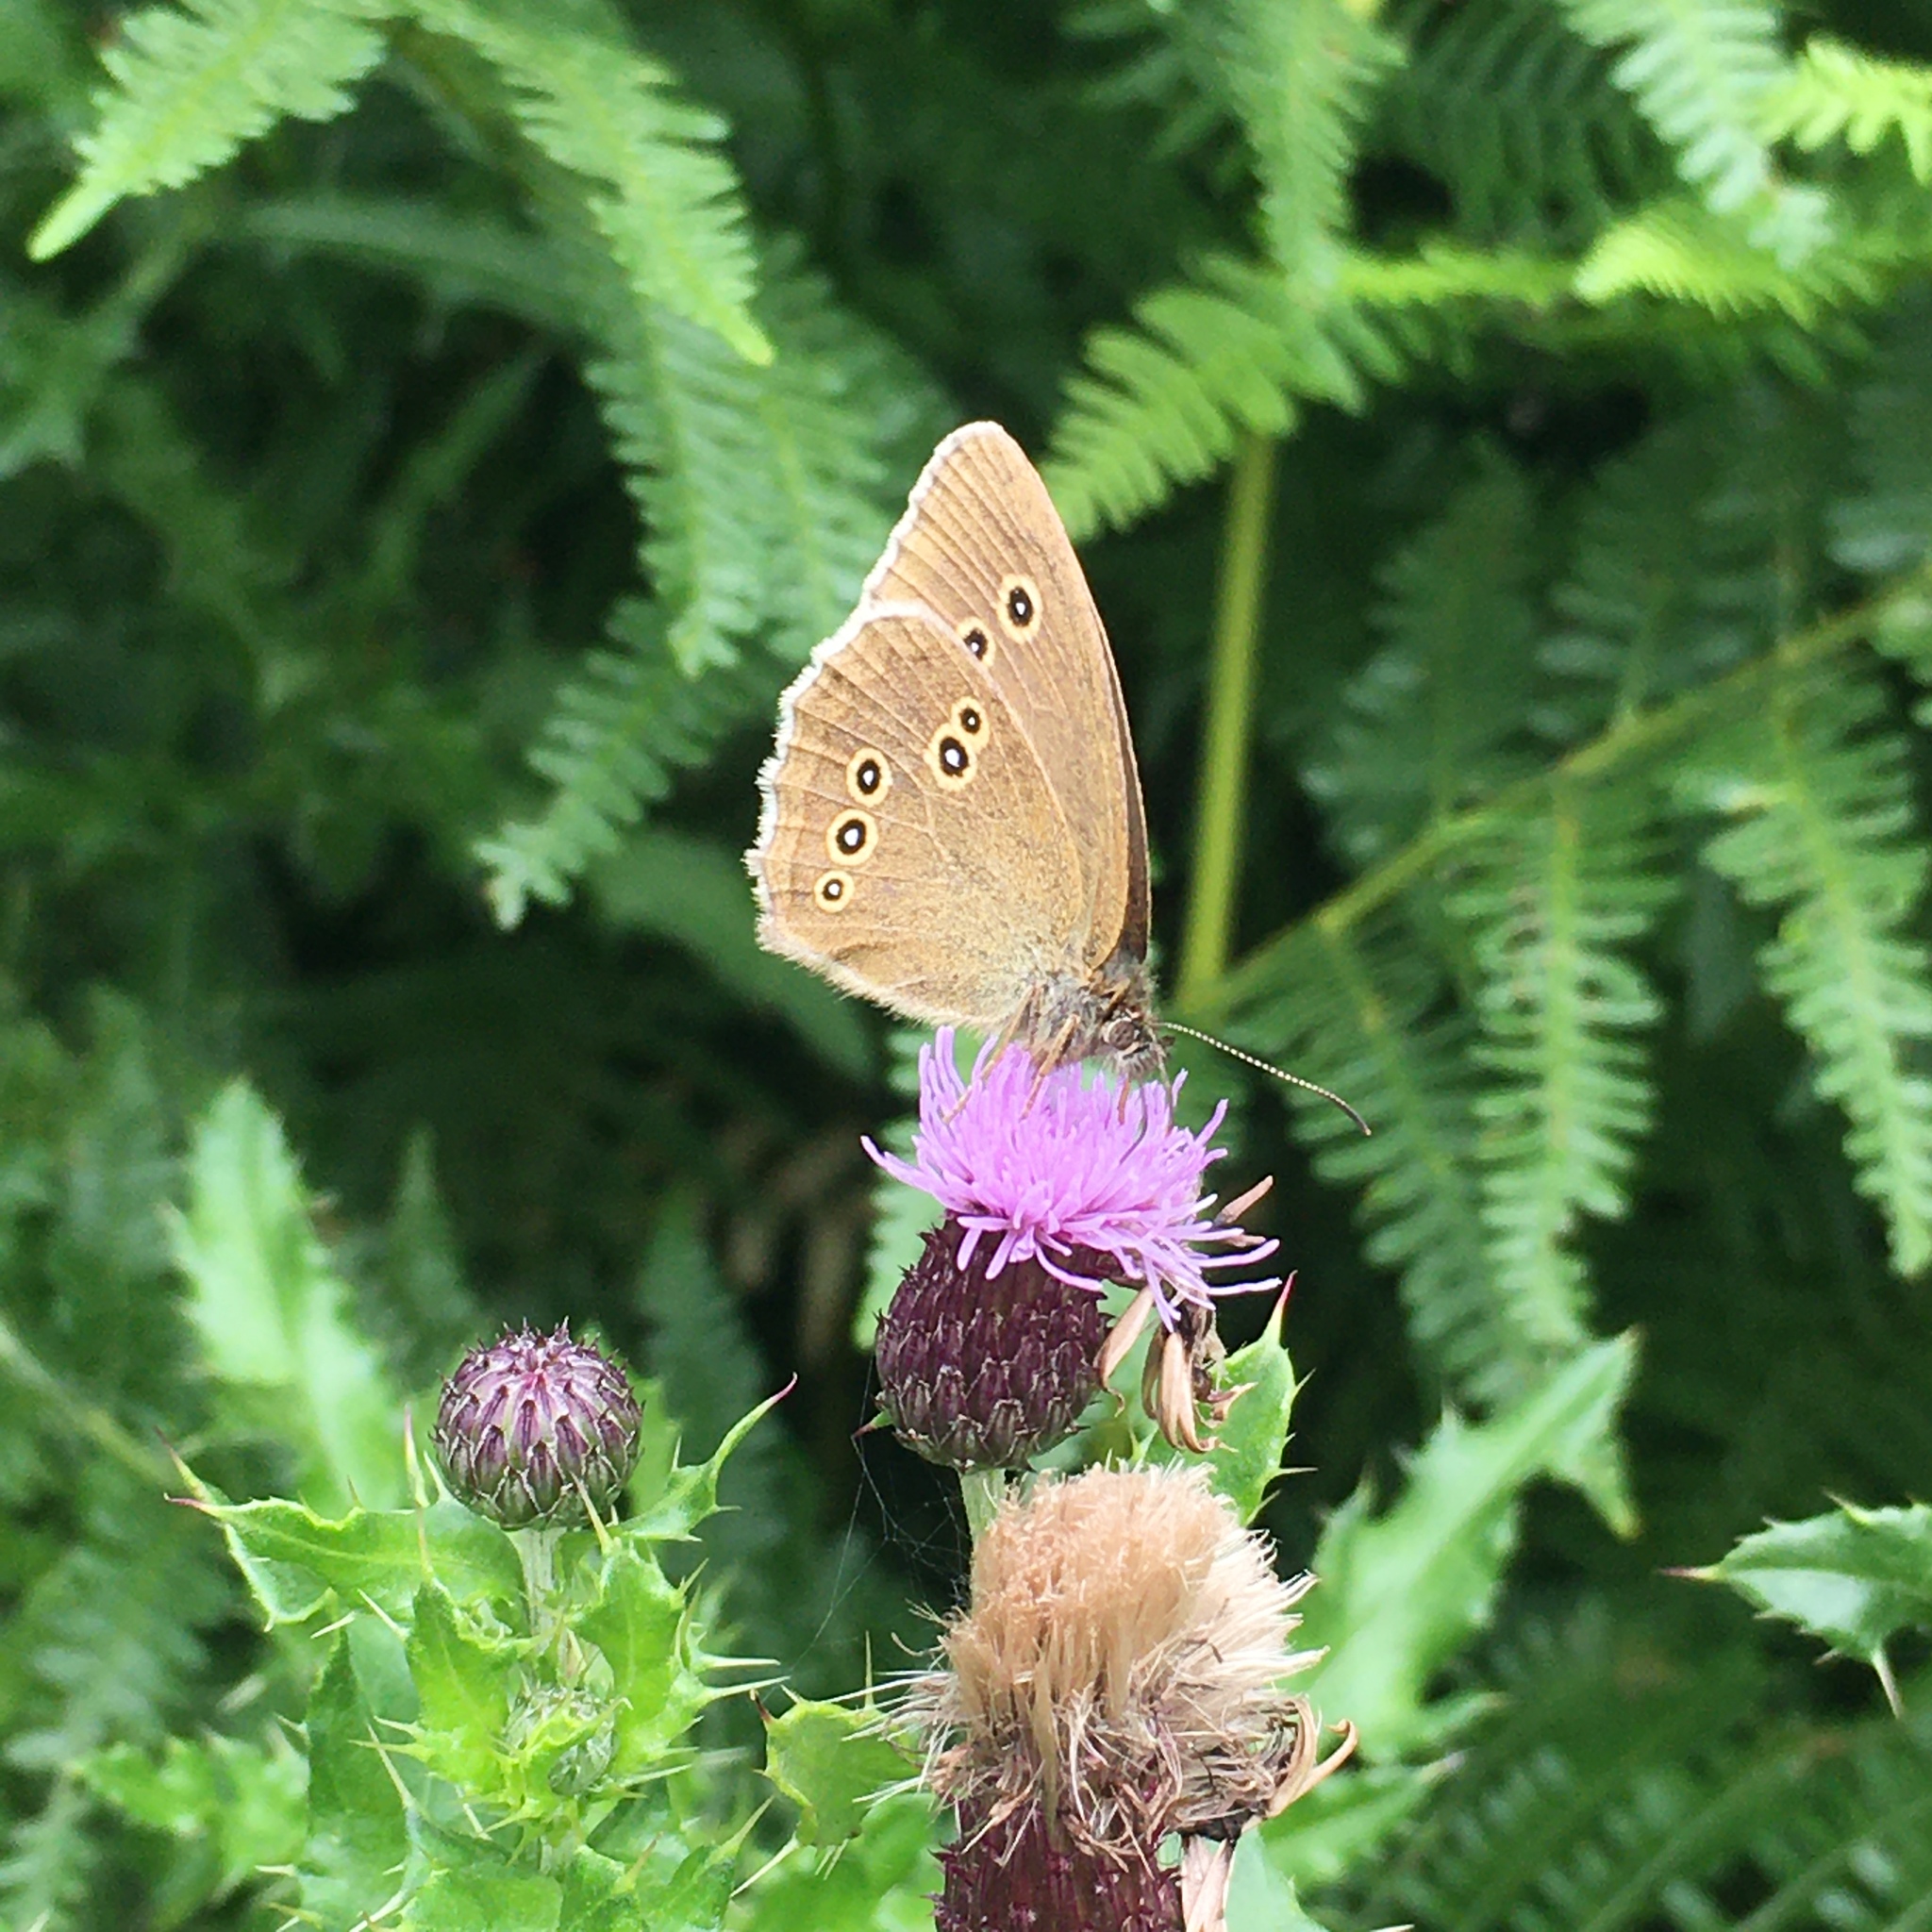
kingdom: Animalia
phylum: Arthropoda
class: Insecta
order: Lepidoptera
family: Nymphalidae
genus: Aphantopus
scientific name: Aphantopus hyperantus
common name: Ringlet
